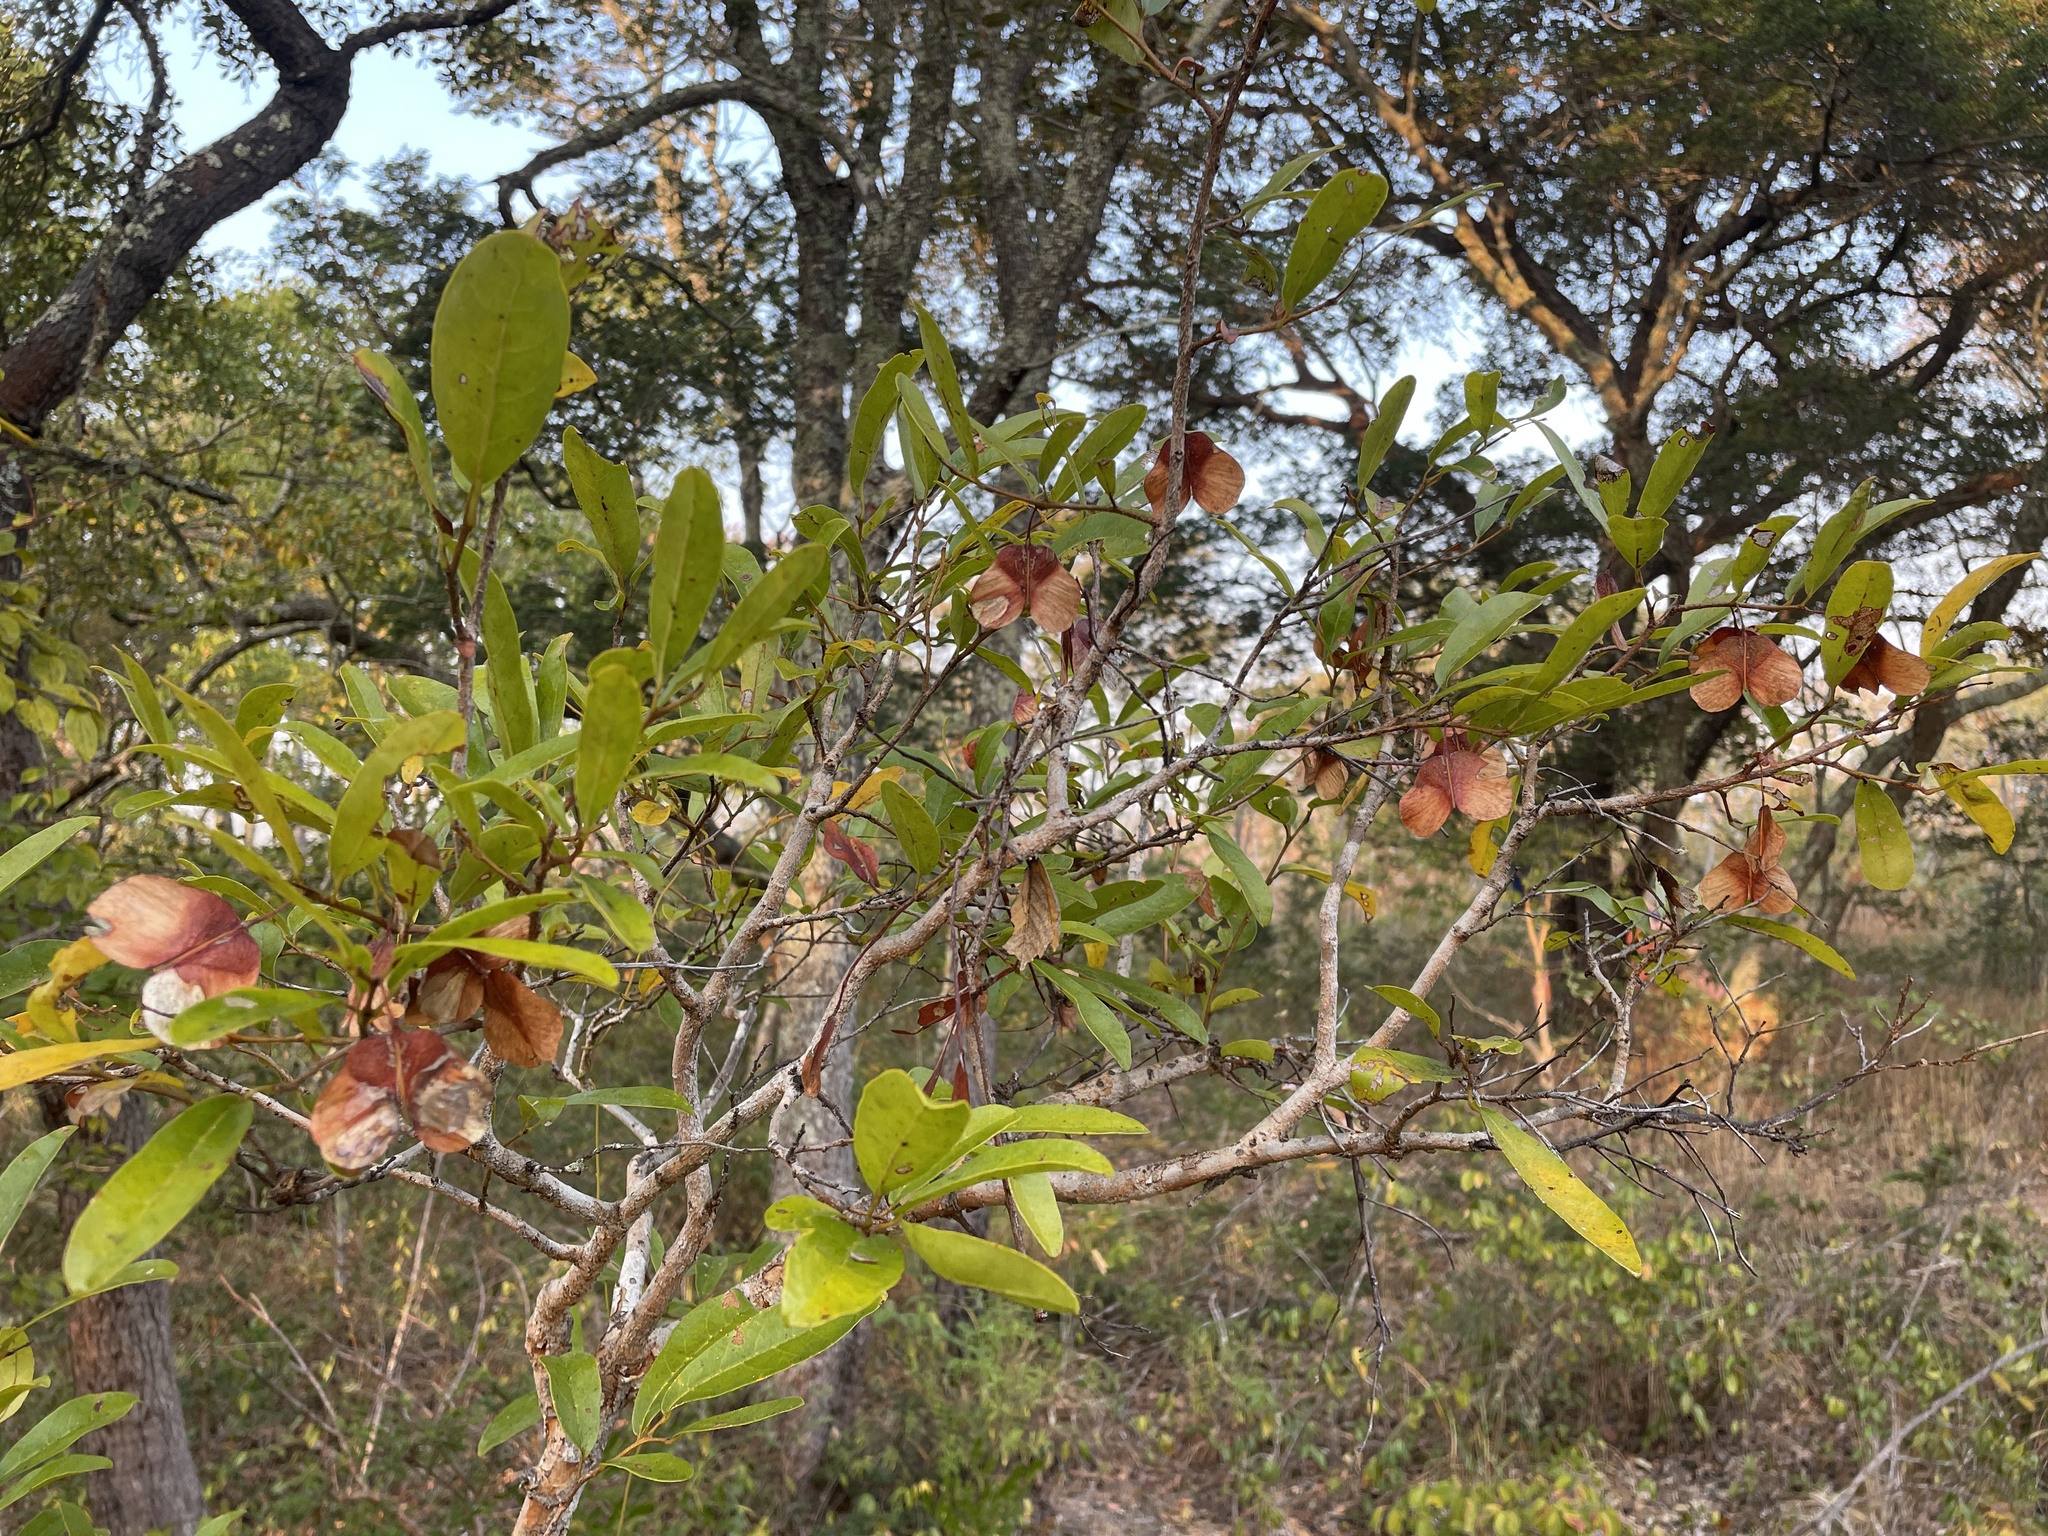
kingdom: Plantae
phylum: Tracheophyta
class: Magnoliopsida
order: Malpighiales
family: Phyllanthaceae
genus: Hymenocardia
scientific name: Hymenocardia acida
